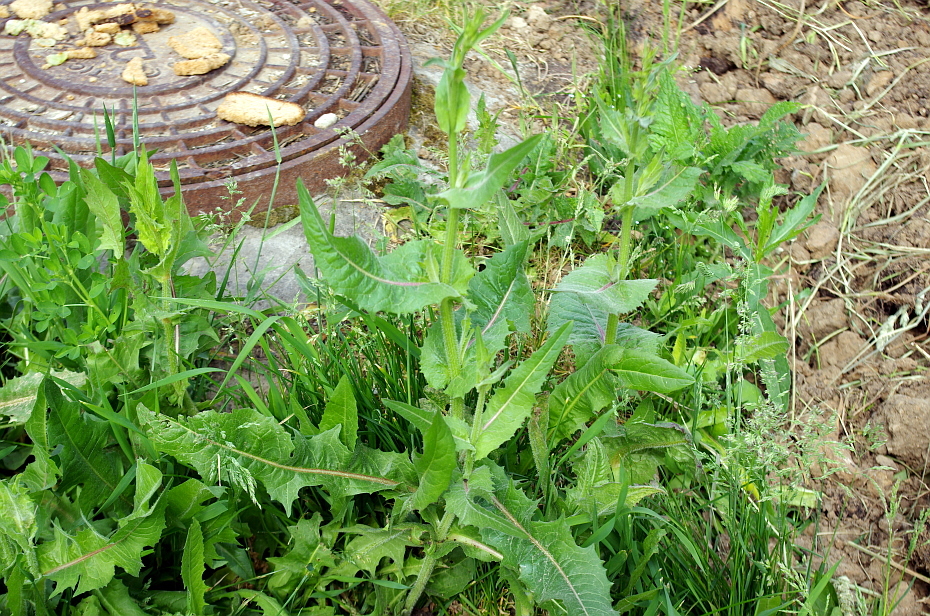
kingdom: Plantae
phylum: Tracheophyta
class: Magnoliopsida
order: Asterales
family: Asteraceae
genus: Cichorium
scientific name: Cichorium intybus
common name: Chicory
